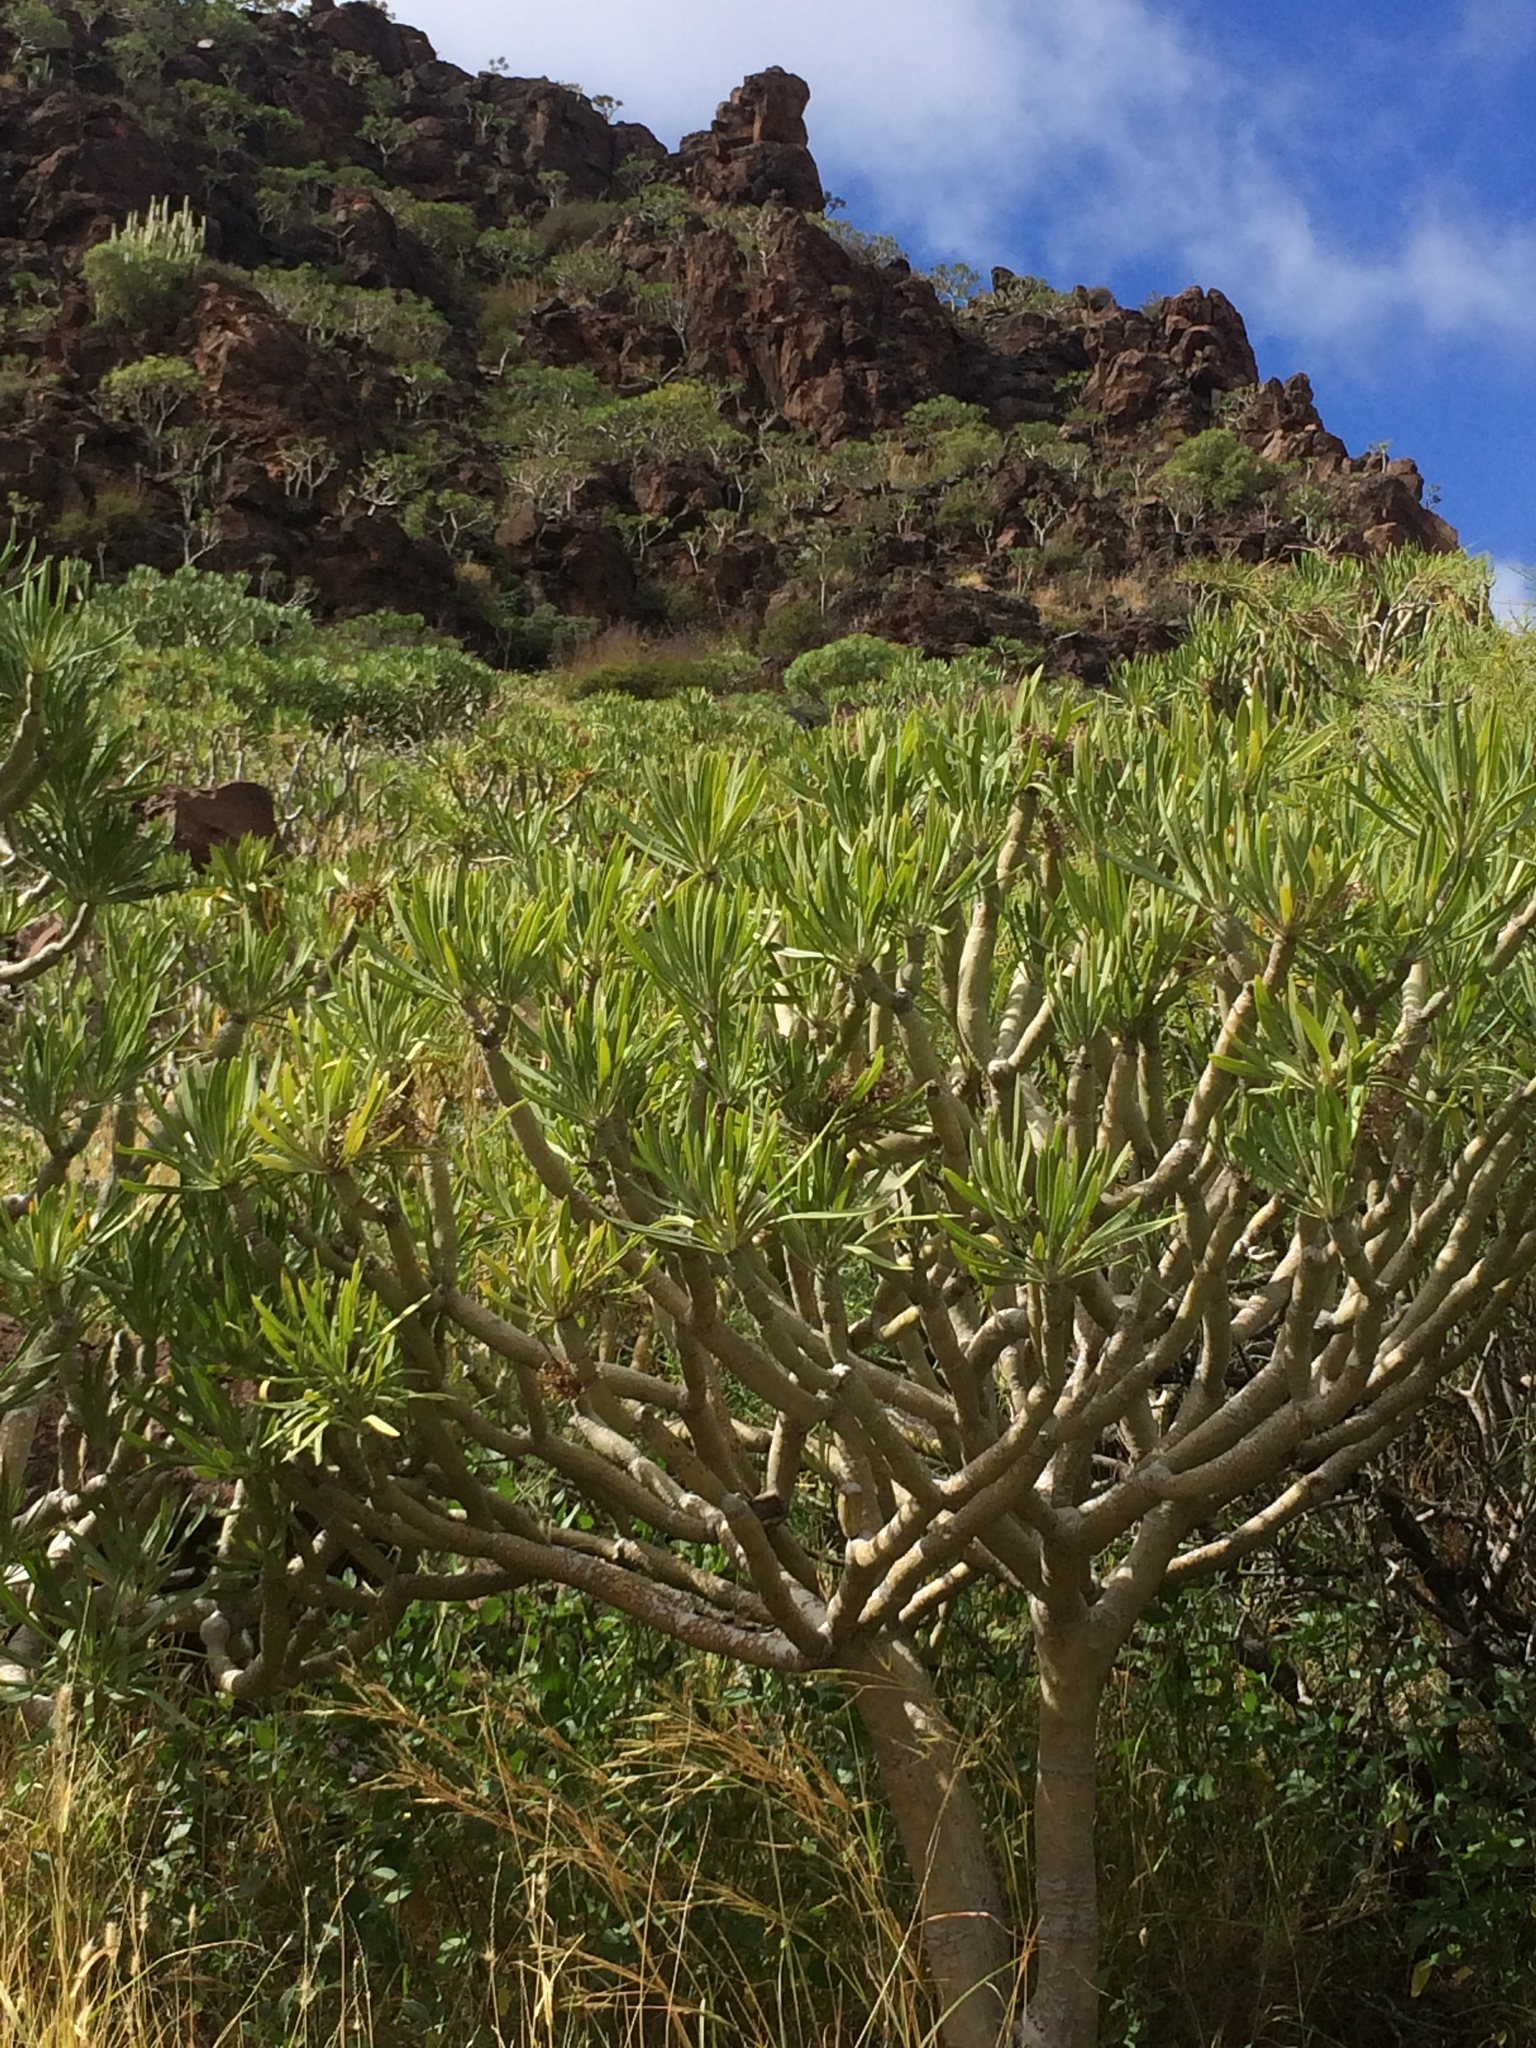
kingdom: Plantae
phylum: Tracheophyta
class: Magnoliopsida
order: Asterales
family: Asteraceae
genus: Kleinia
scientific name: Kleinia neriifolia
